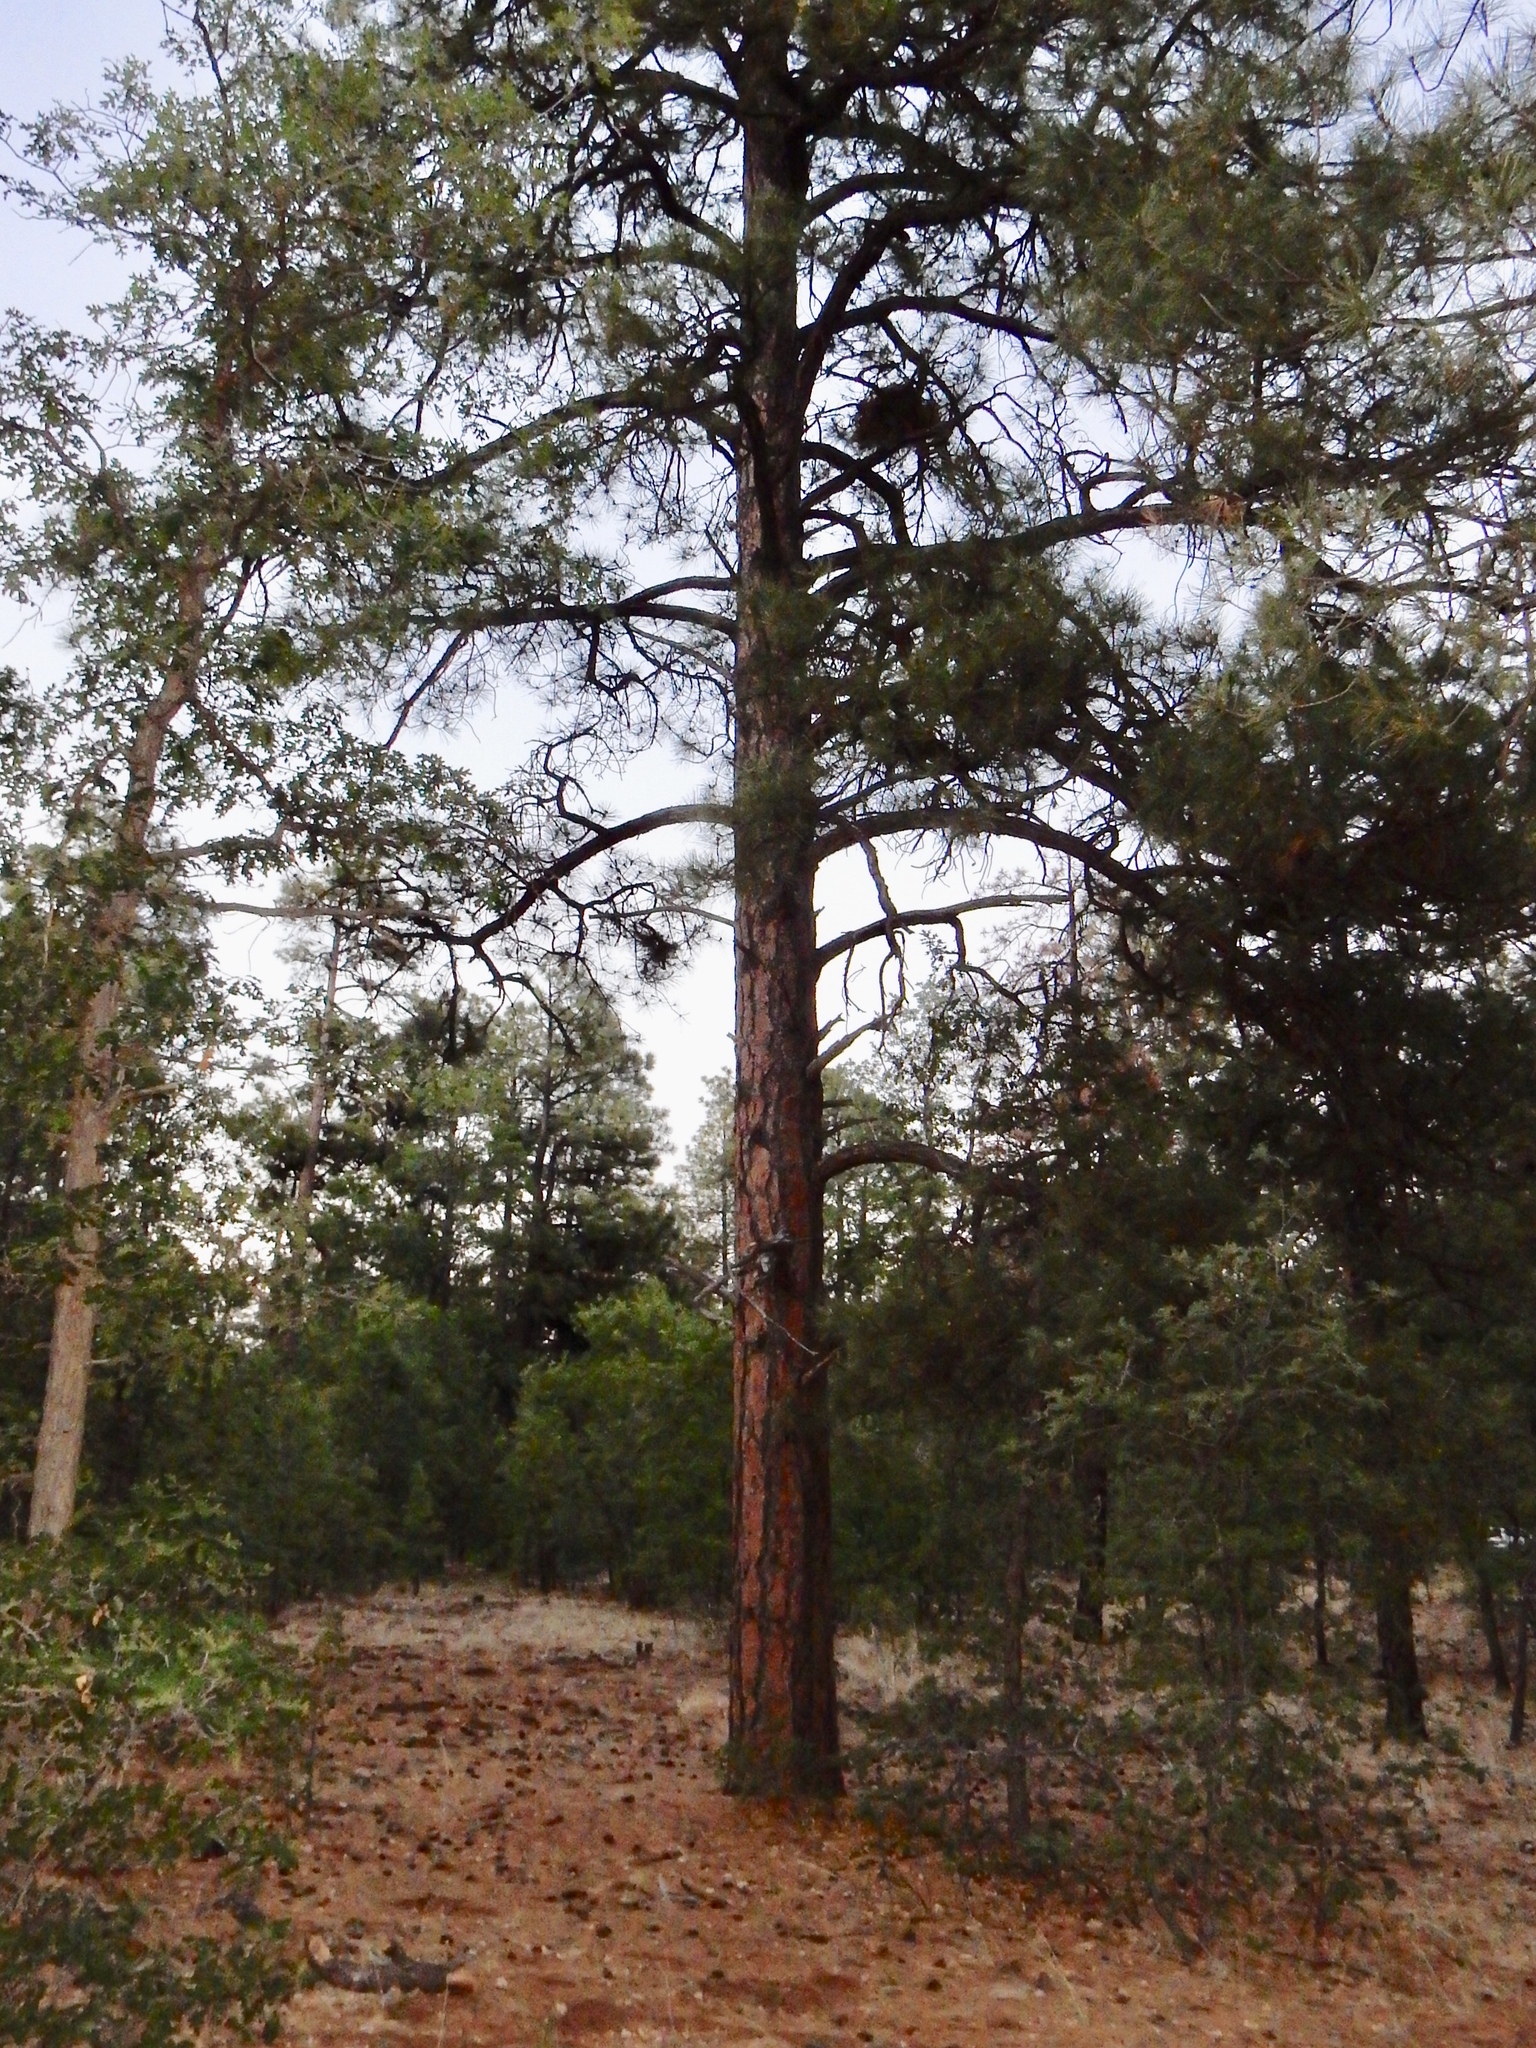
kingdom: Plantae
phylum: Tracheophyta
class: Pinopsida
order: Pinales
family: Pinaceae
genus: Pinus
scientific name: Pinus ponderosa
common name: Western yellow-pine
